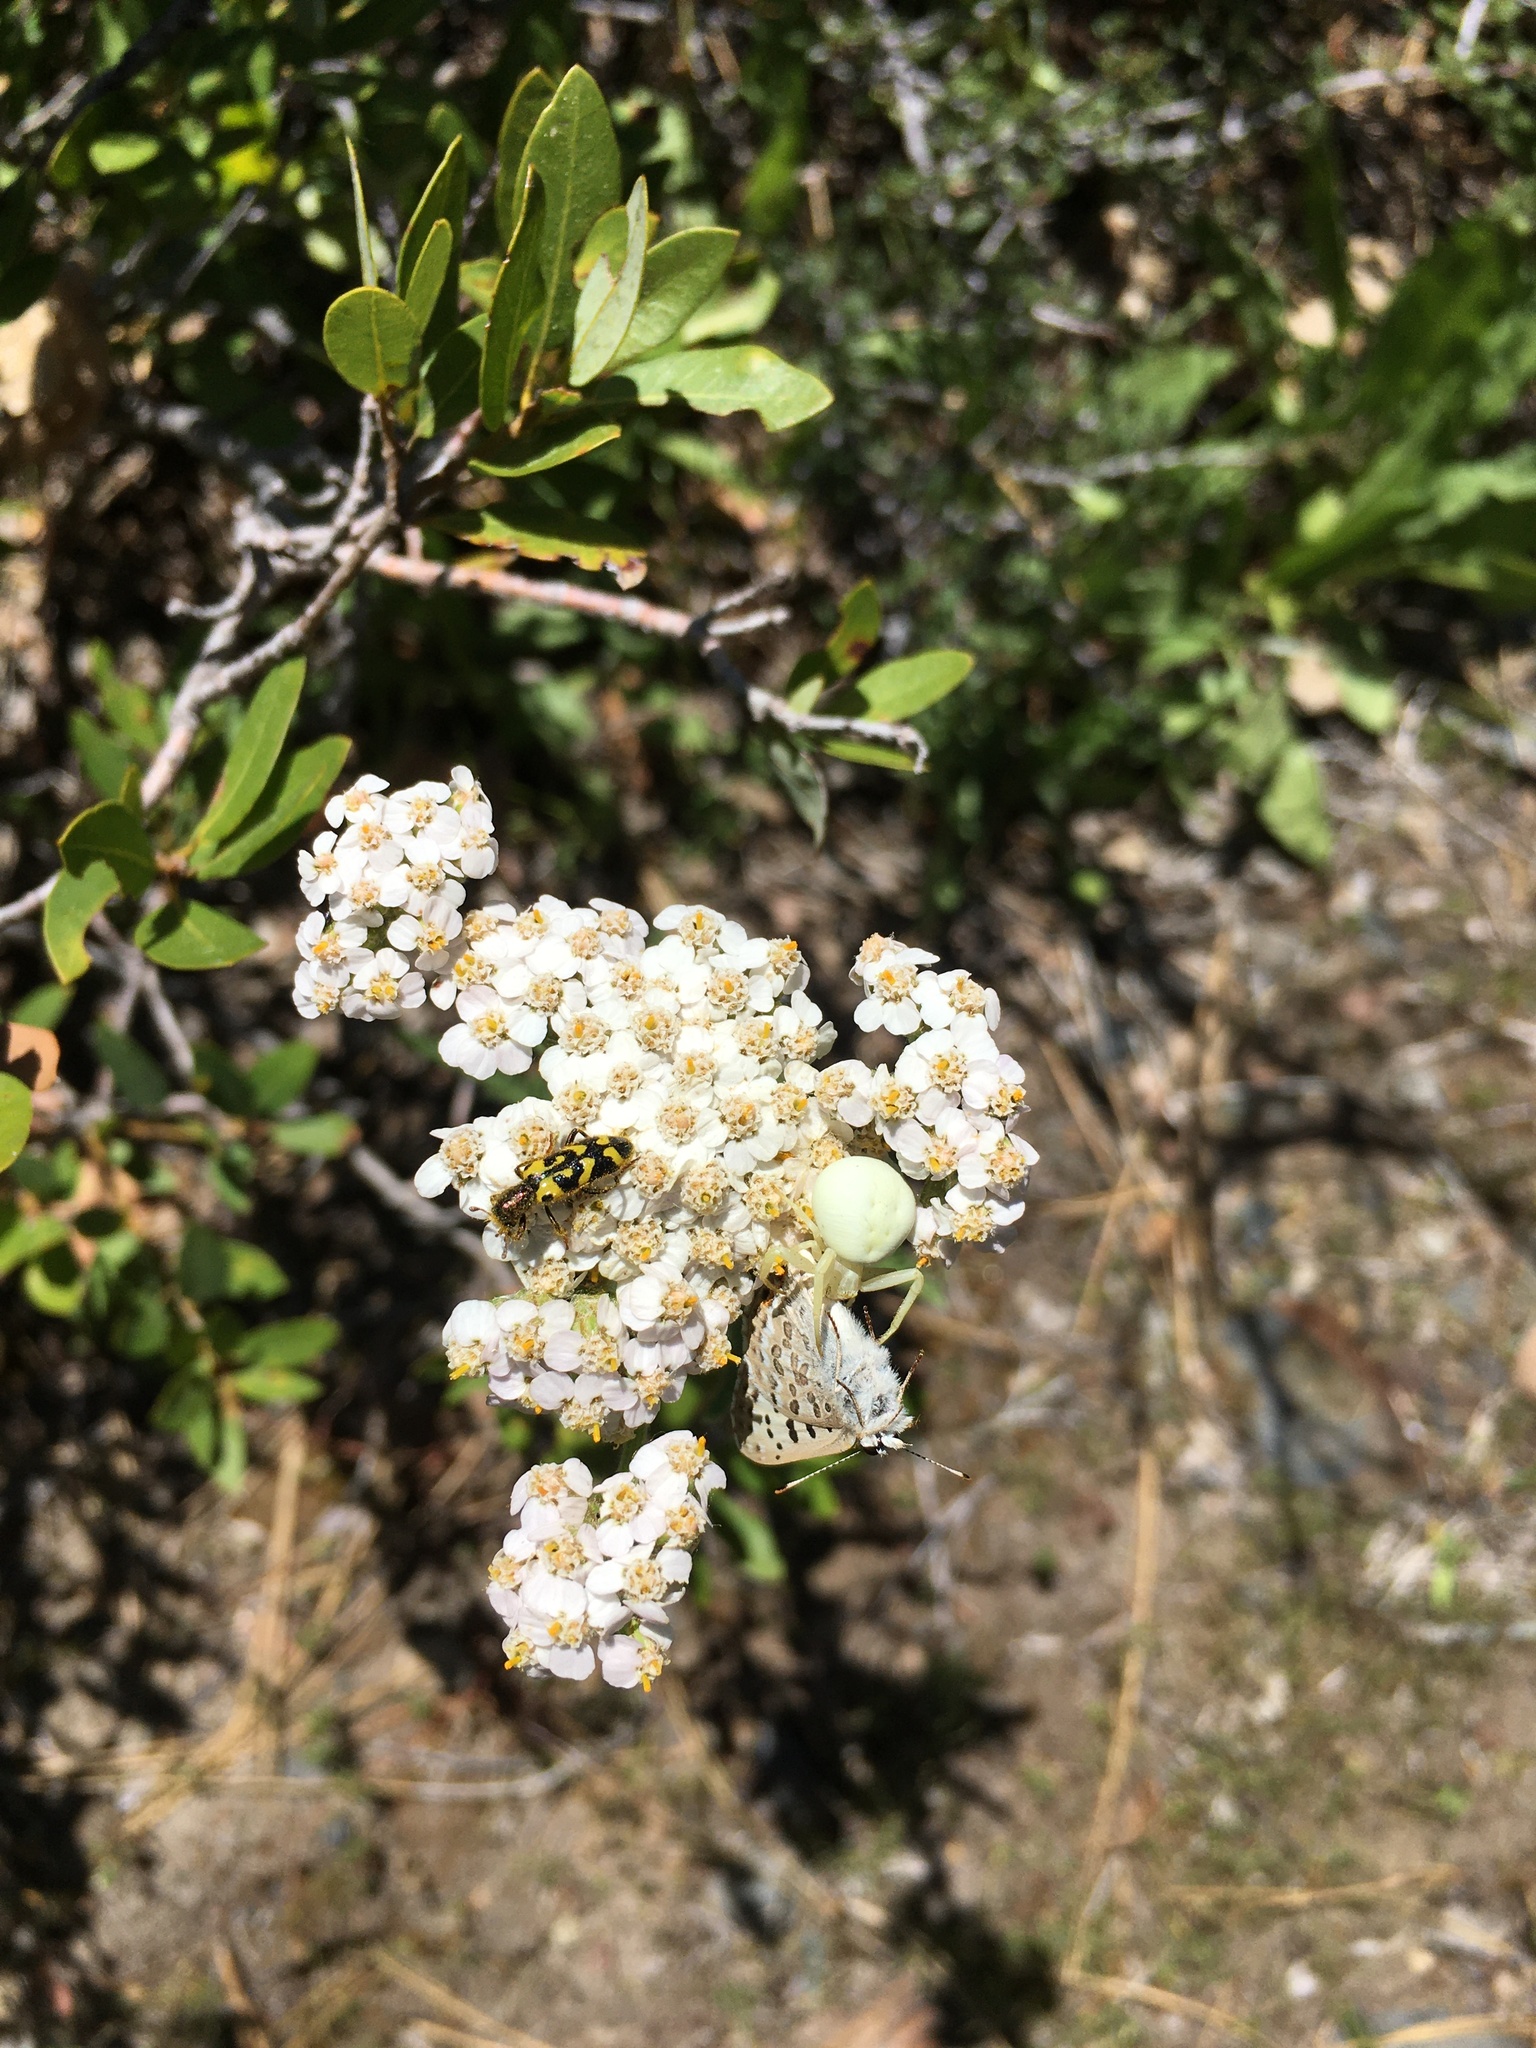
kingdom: Animalia
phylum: Arthropoda
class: Insecta
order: Coleoptera
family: Cleridae
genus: Trichodes
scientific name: Trichodes ornatus
